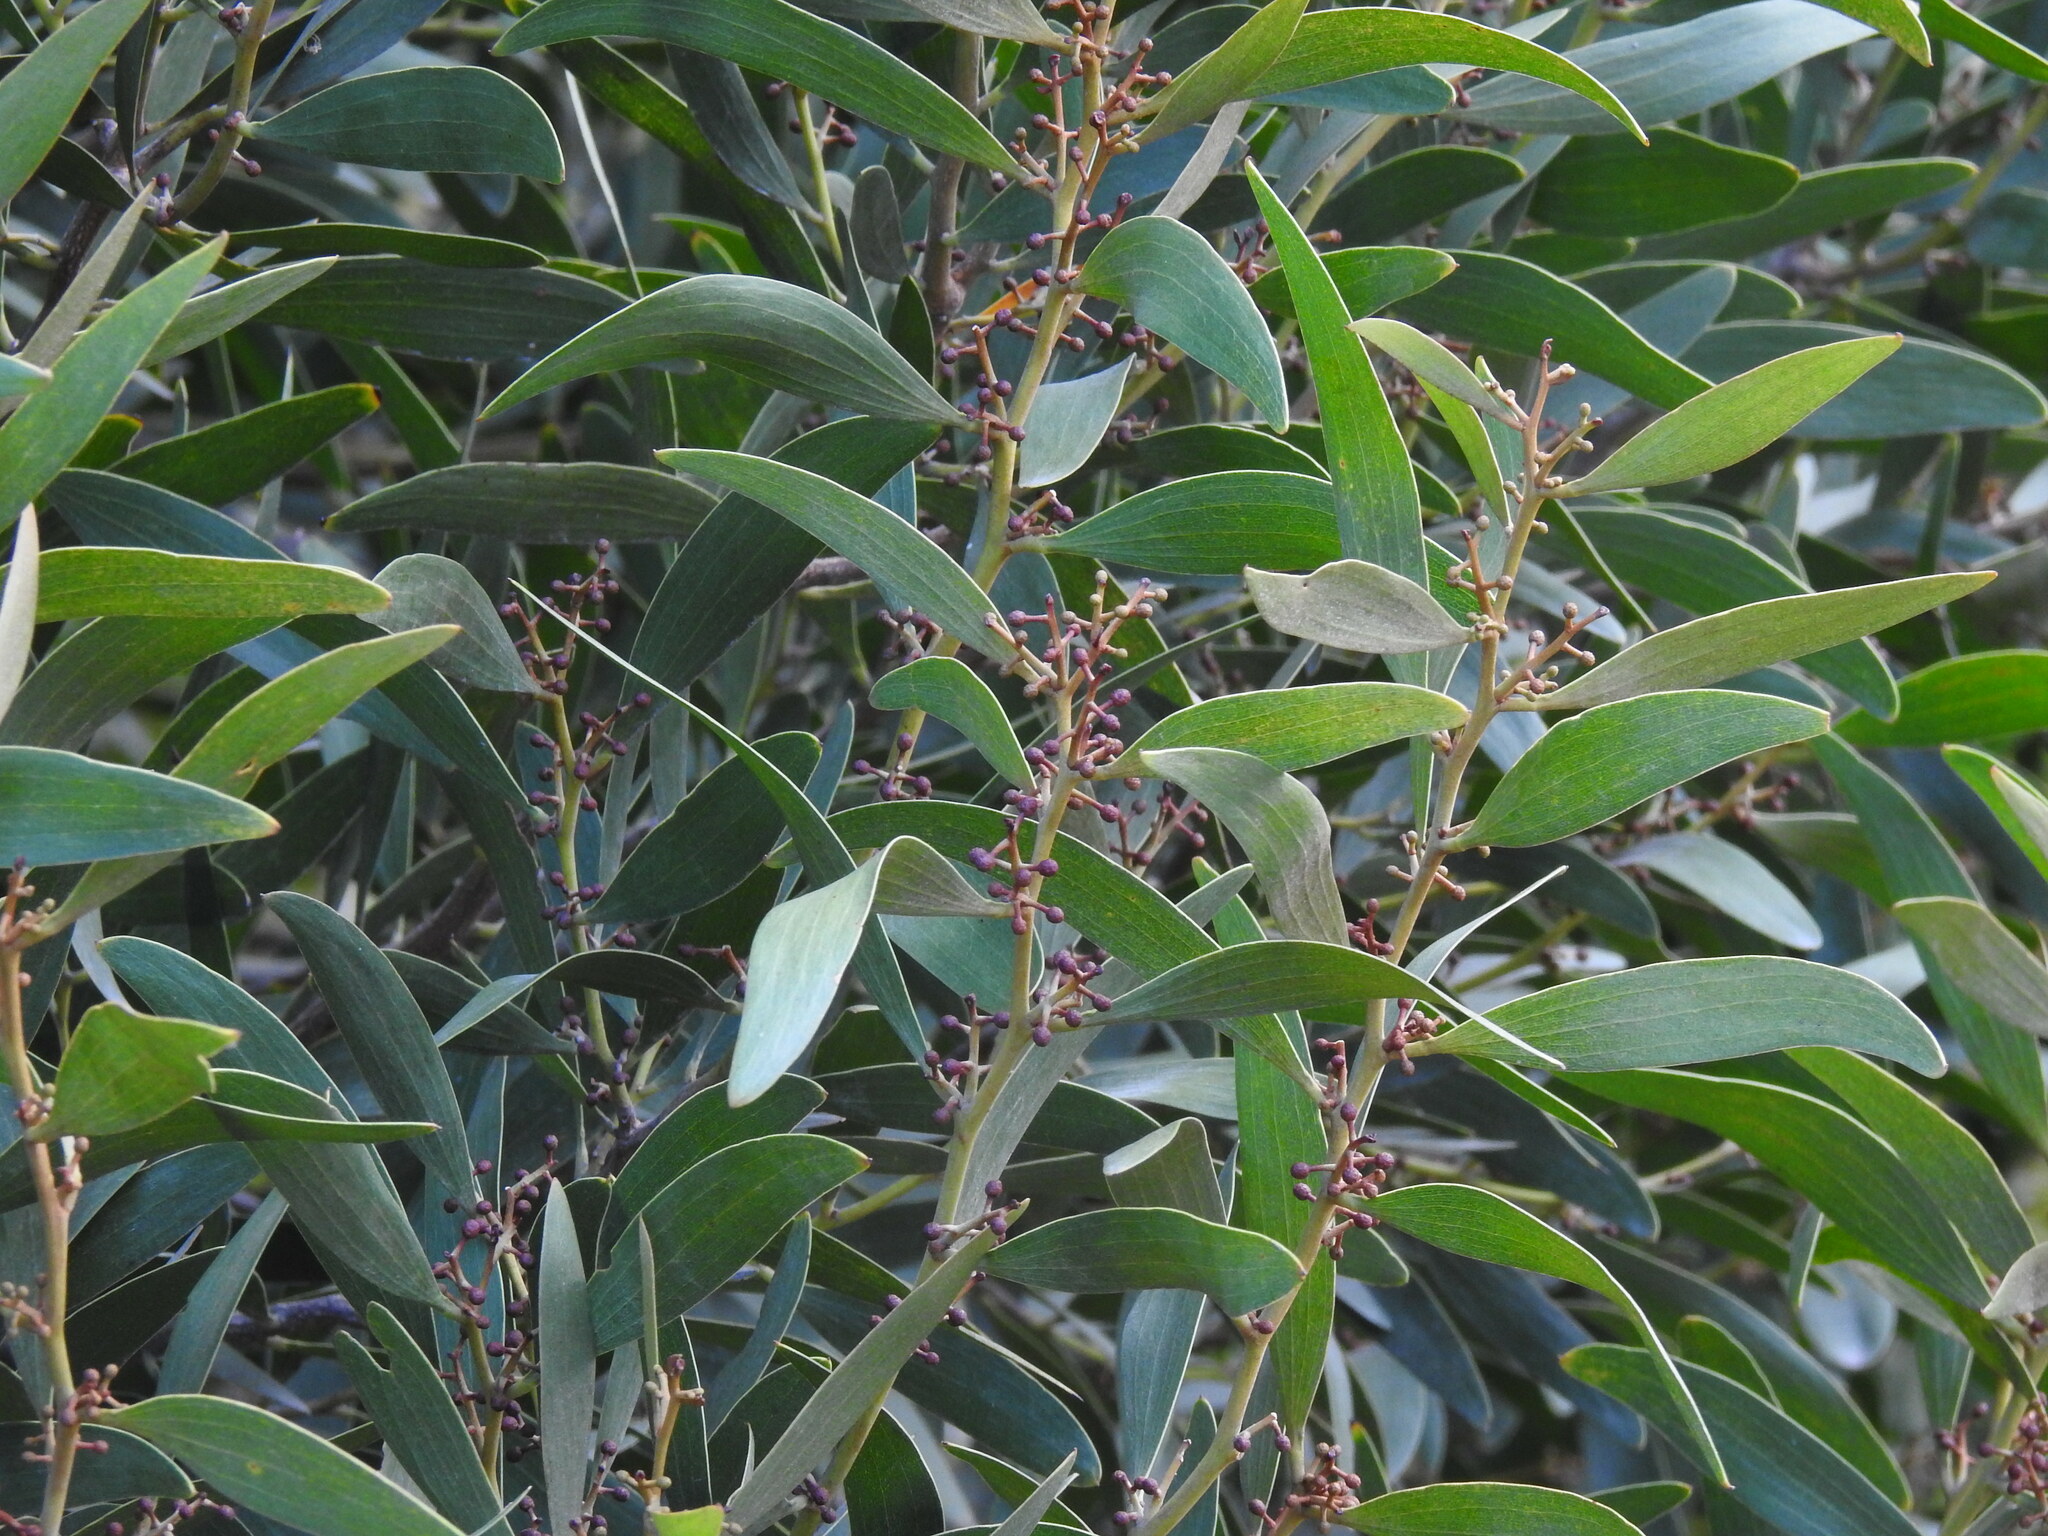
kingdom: Plantae
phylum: Tracheophyta
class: Magnoliopsida
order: Fabales
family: Fabaceae
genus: Acacia
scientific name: Acacia melanoxylon
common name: Blackwood
